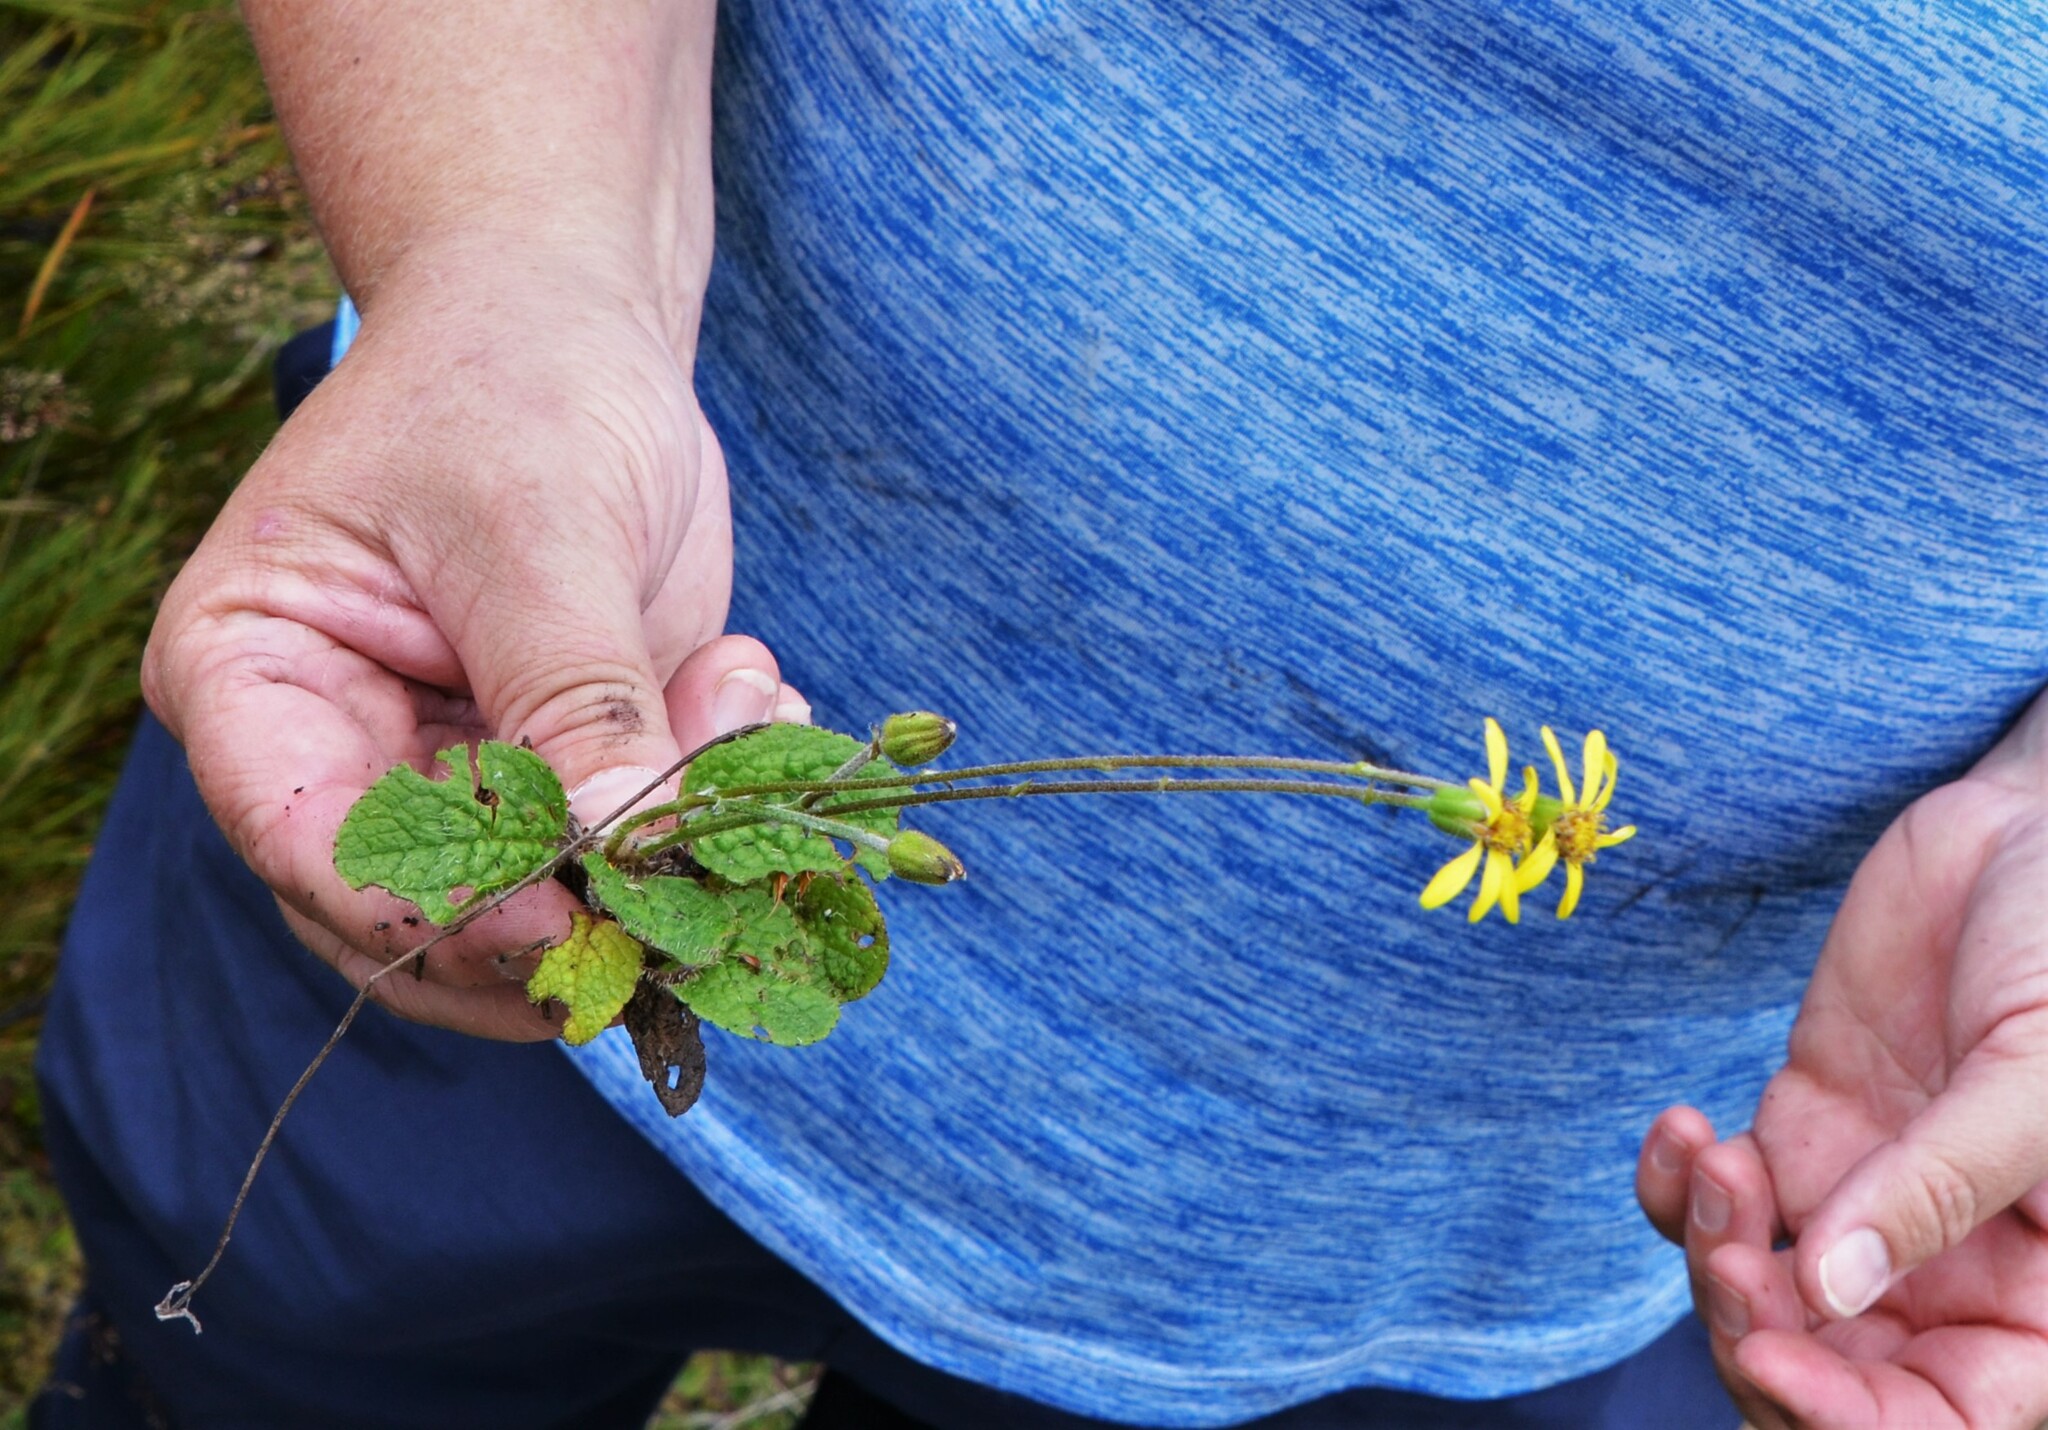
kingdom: Plantae
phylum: Tracheophyta
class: Magnoliopsida
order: Asterales
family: Asteraceae
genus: Brachyglottis
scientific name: Brachyglottis bellidioides
